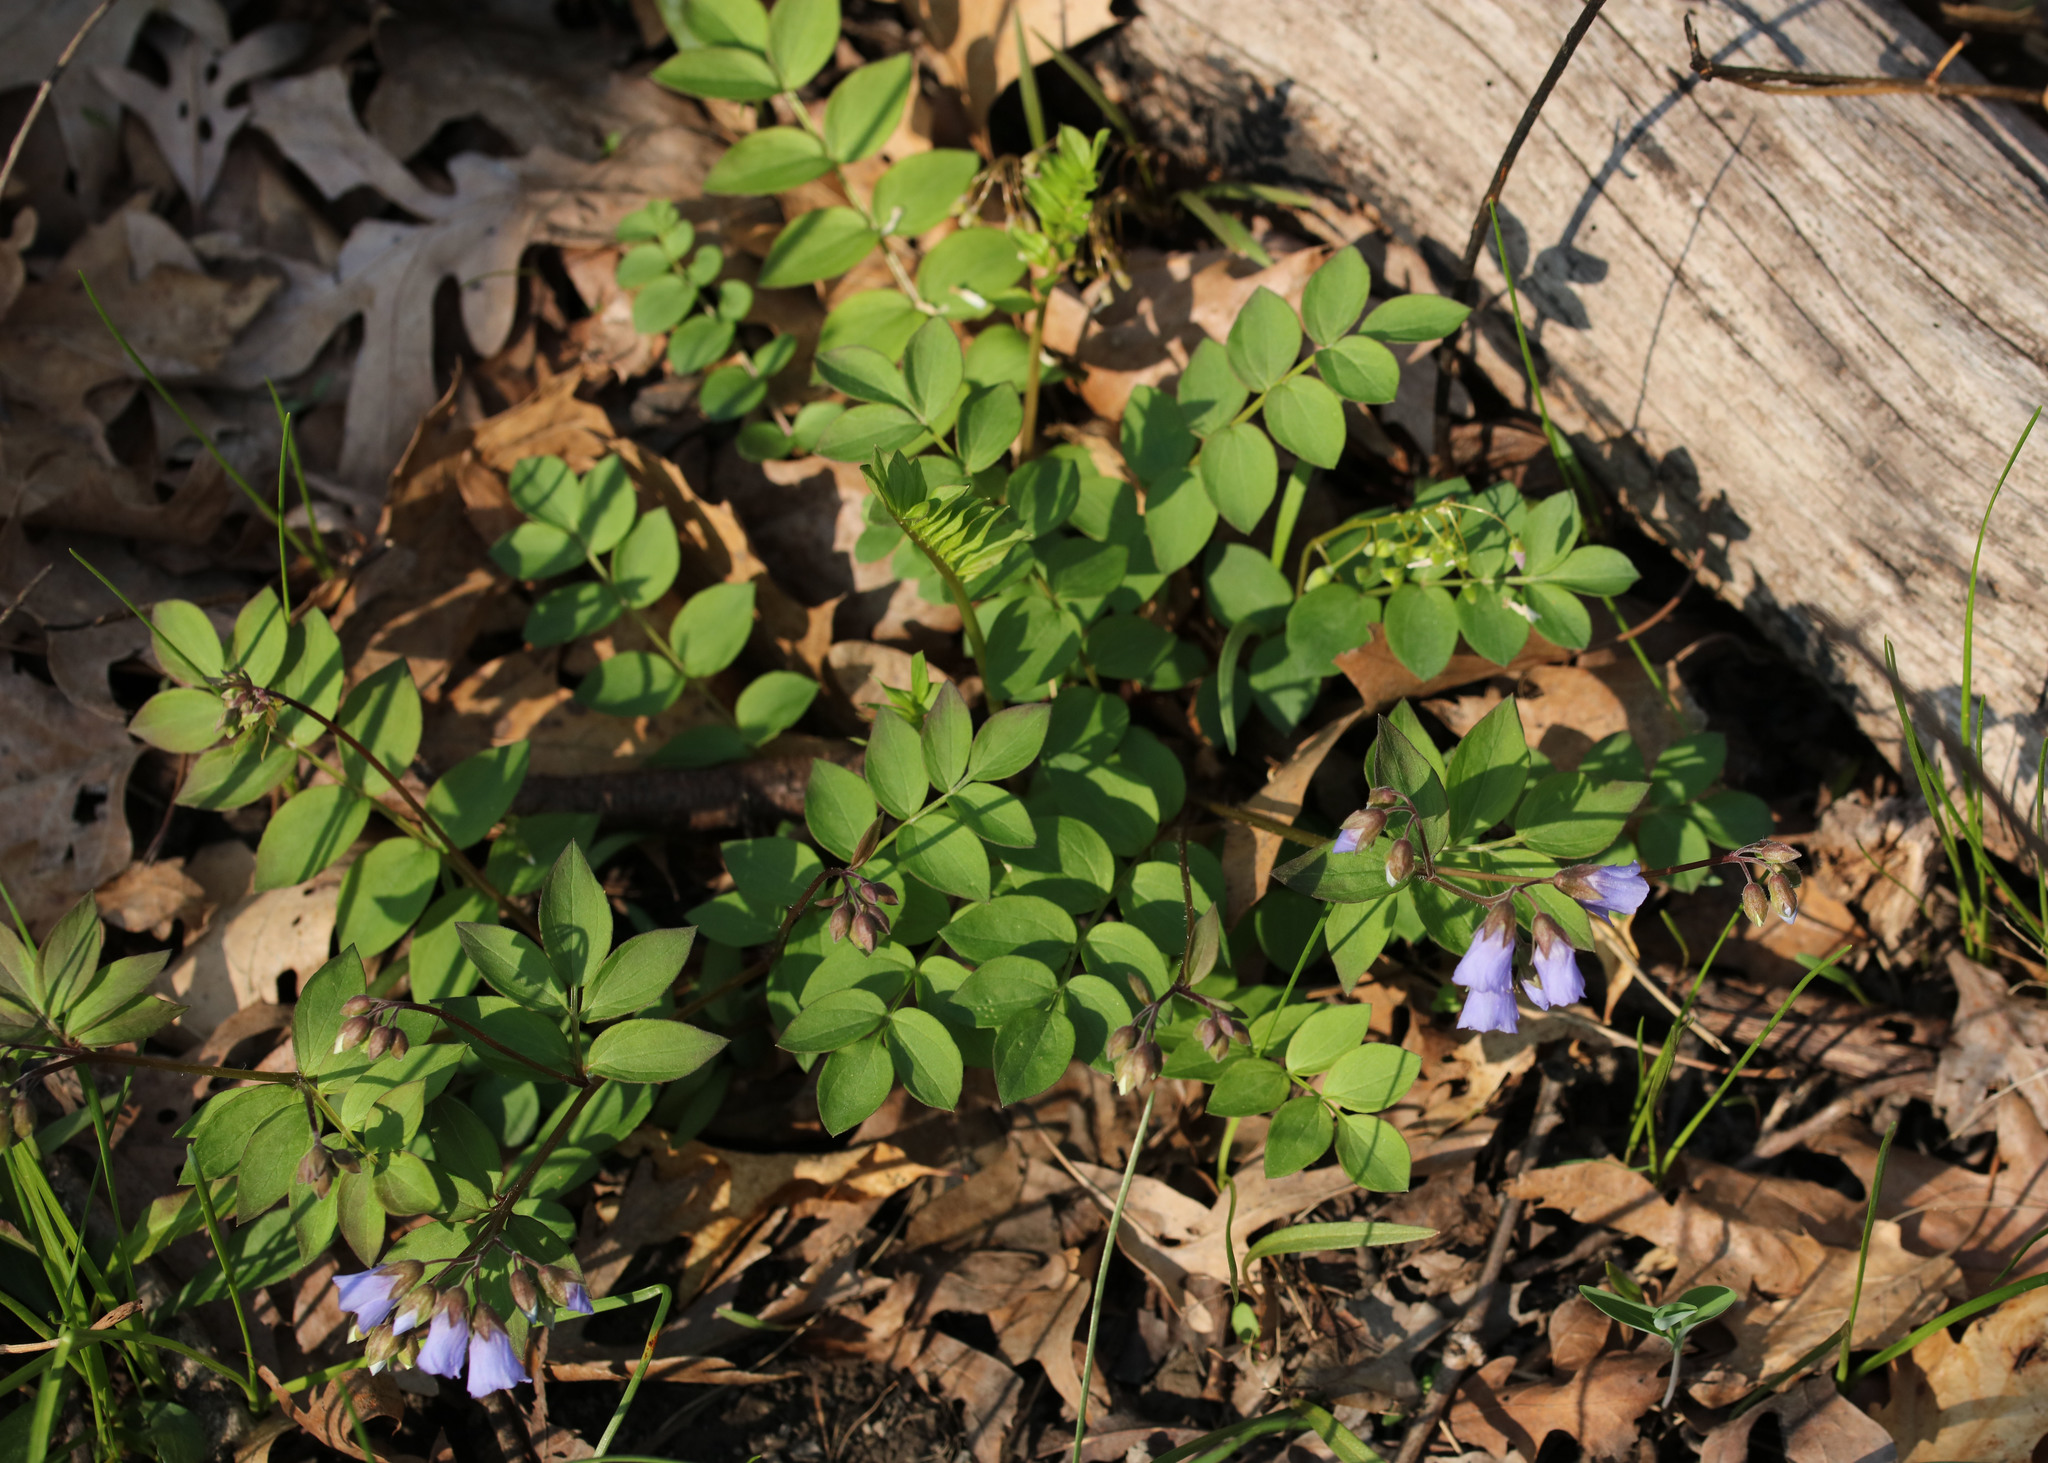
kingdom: Plantae
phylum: Tracheophyta
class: Magnoliopsida
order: Ericales
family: Polemoniaceae
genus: Polemonium
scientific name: Polemonium reptans
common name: Creeping jacob's-ladder
